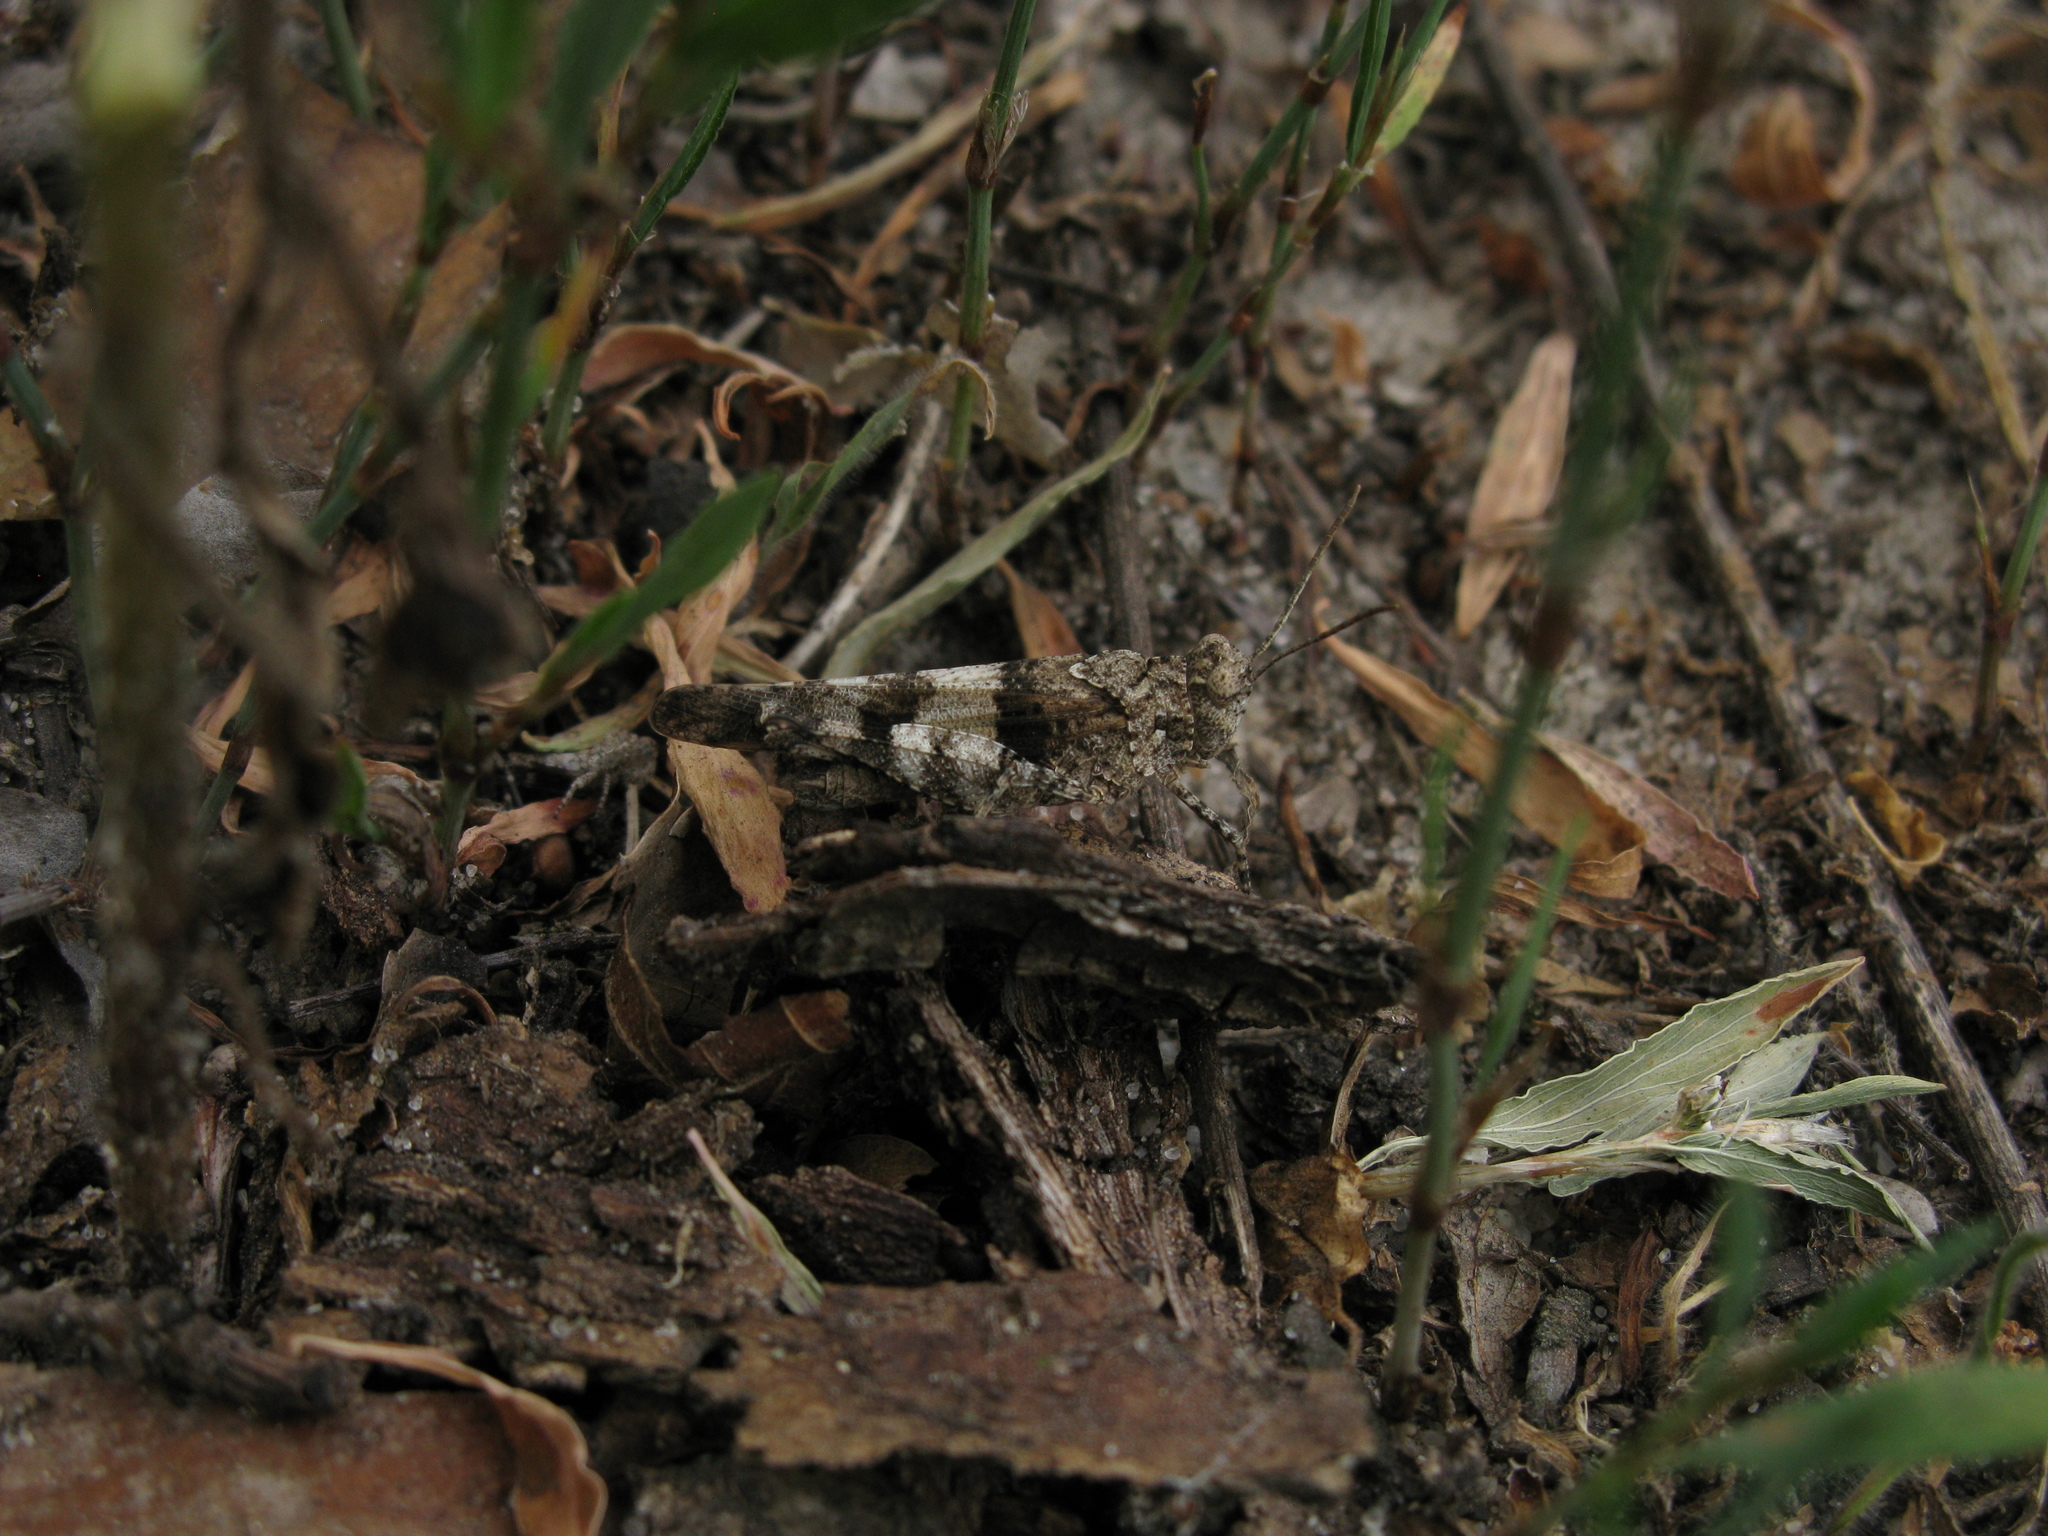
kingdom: Animalia
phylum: Arthropoda
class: Insecta
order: Orthoptera
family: Acrididae
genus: Oedipoda
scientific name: Oedipoda caerulescens
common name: Blue-winged grasshopper
